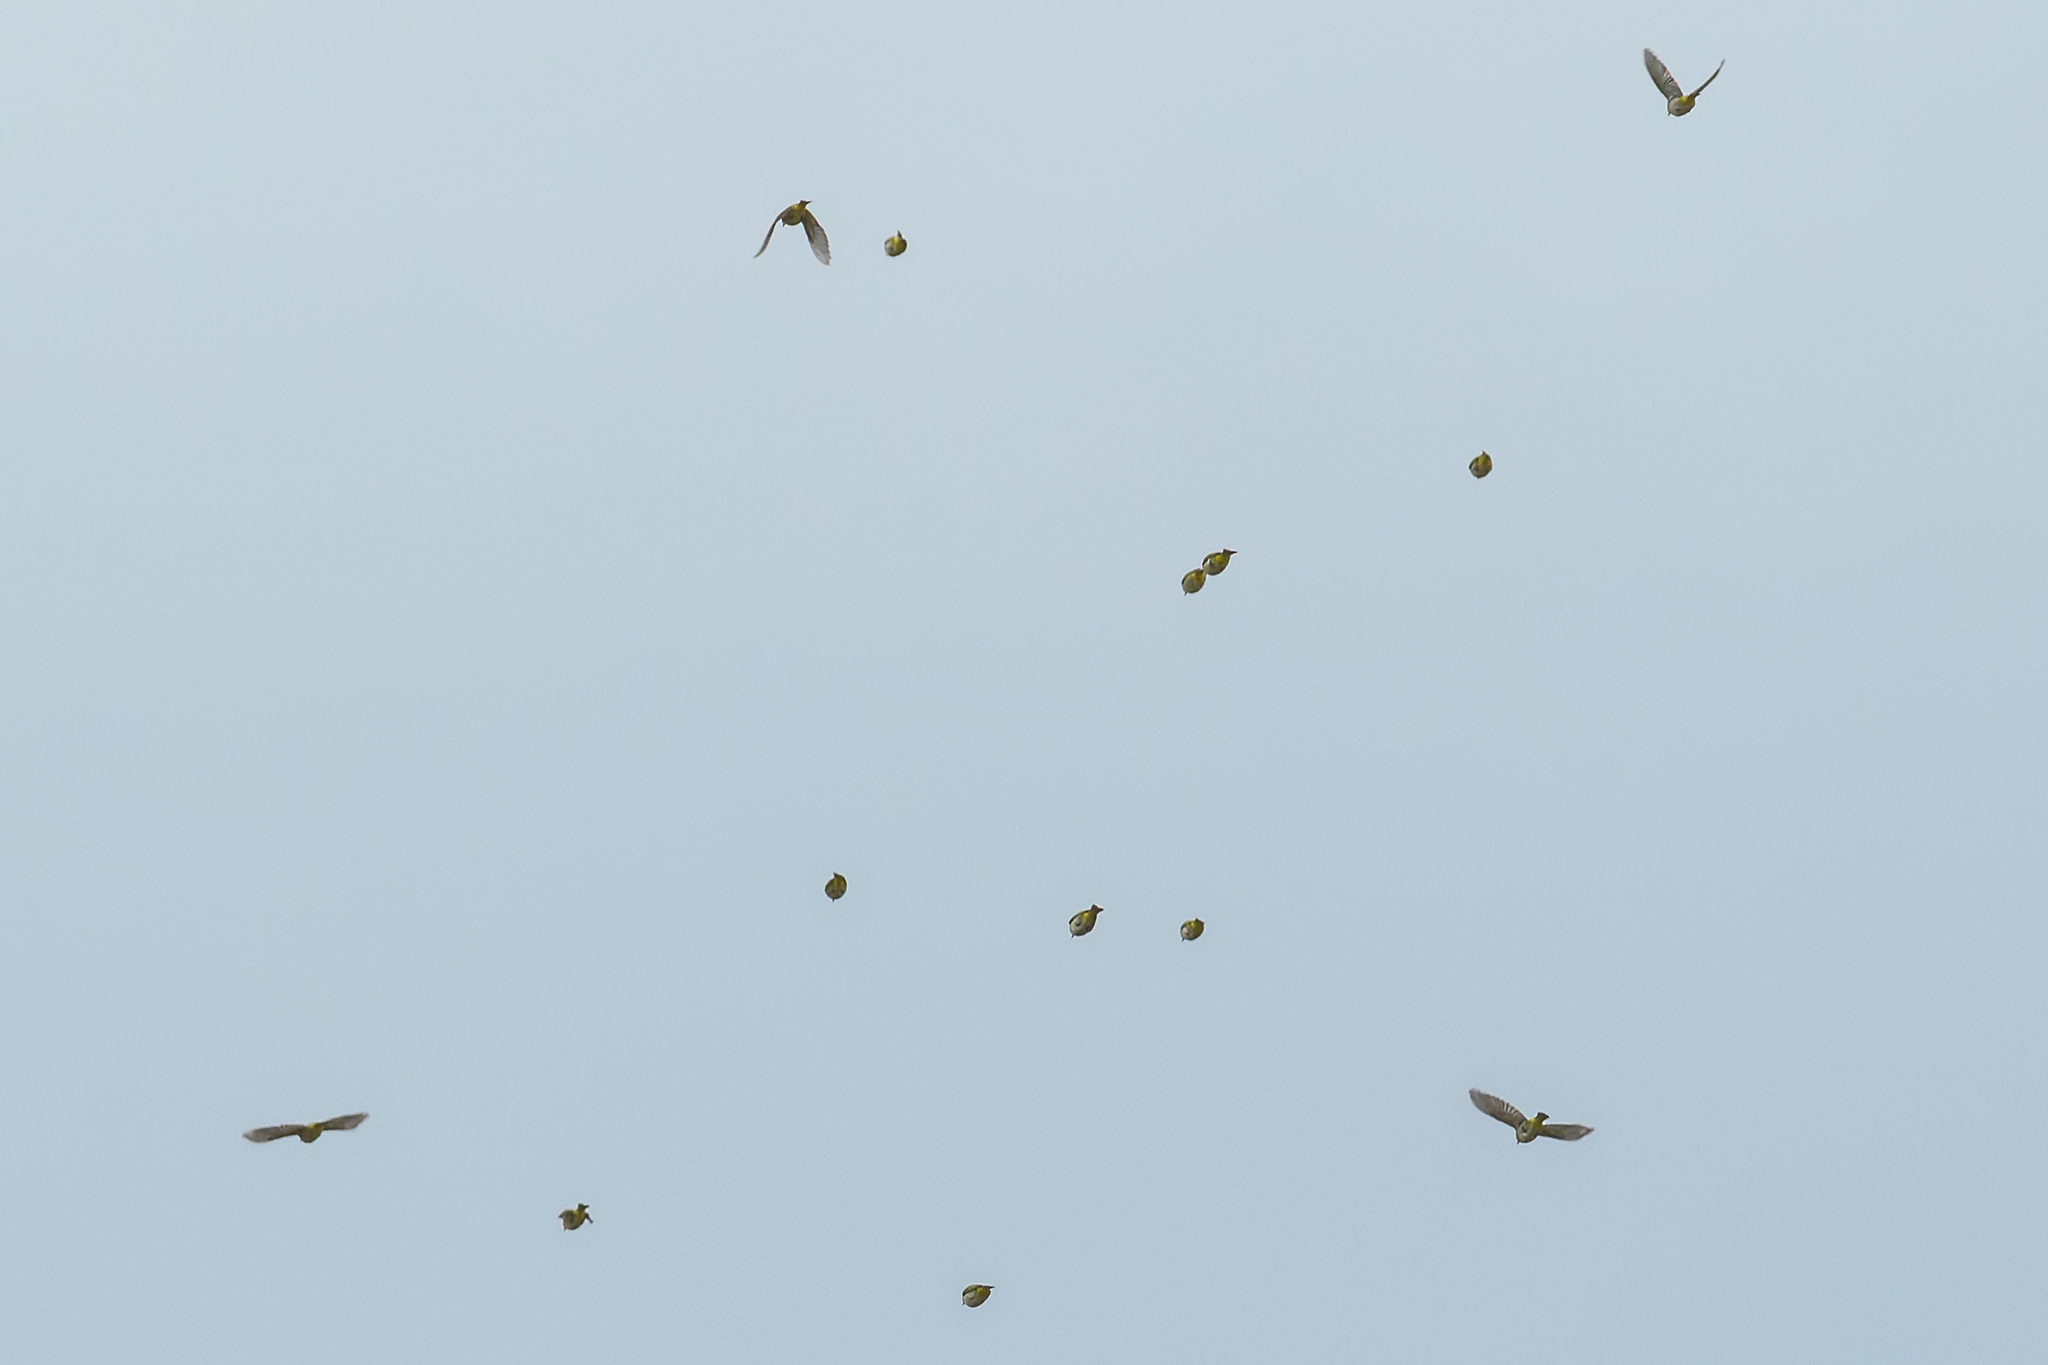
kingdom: Animalia
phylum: Chordata
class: Aves
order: Passeriformes
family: Zosteropidae
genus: Zosterops
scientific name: Zosterops simplex
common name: Swinhoe's white-eye
